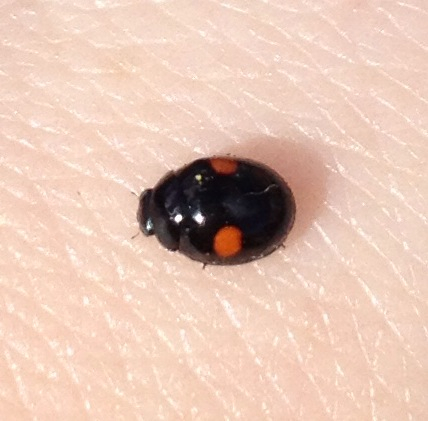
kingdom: Animalia
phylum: Arthropoda
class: Insecta
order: Coleoptera
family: Coccinellidae
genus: Hyperaspis
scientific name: Hyperaspis
